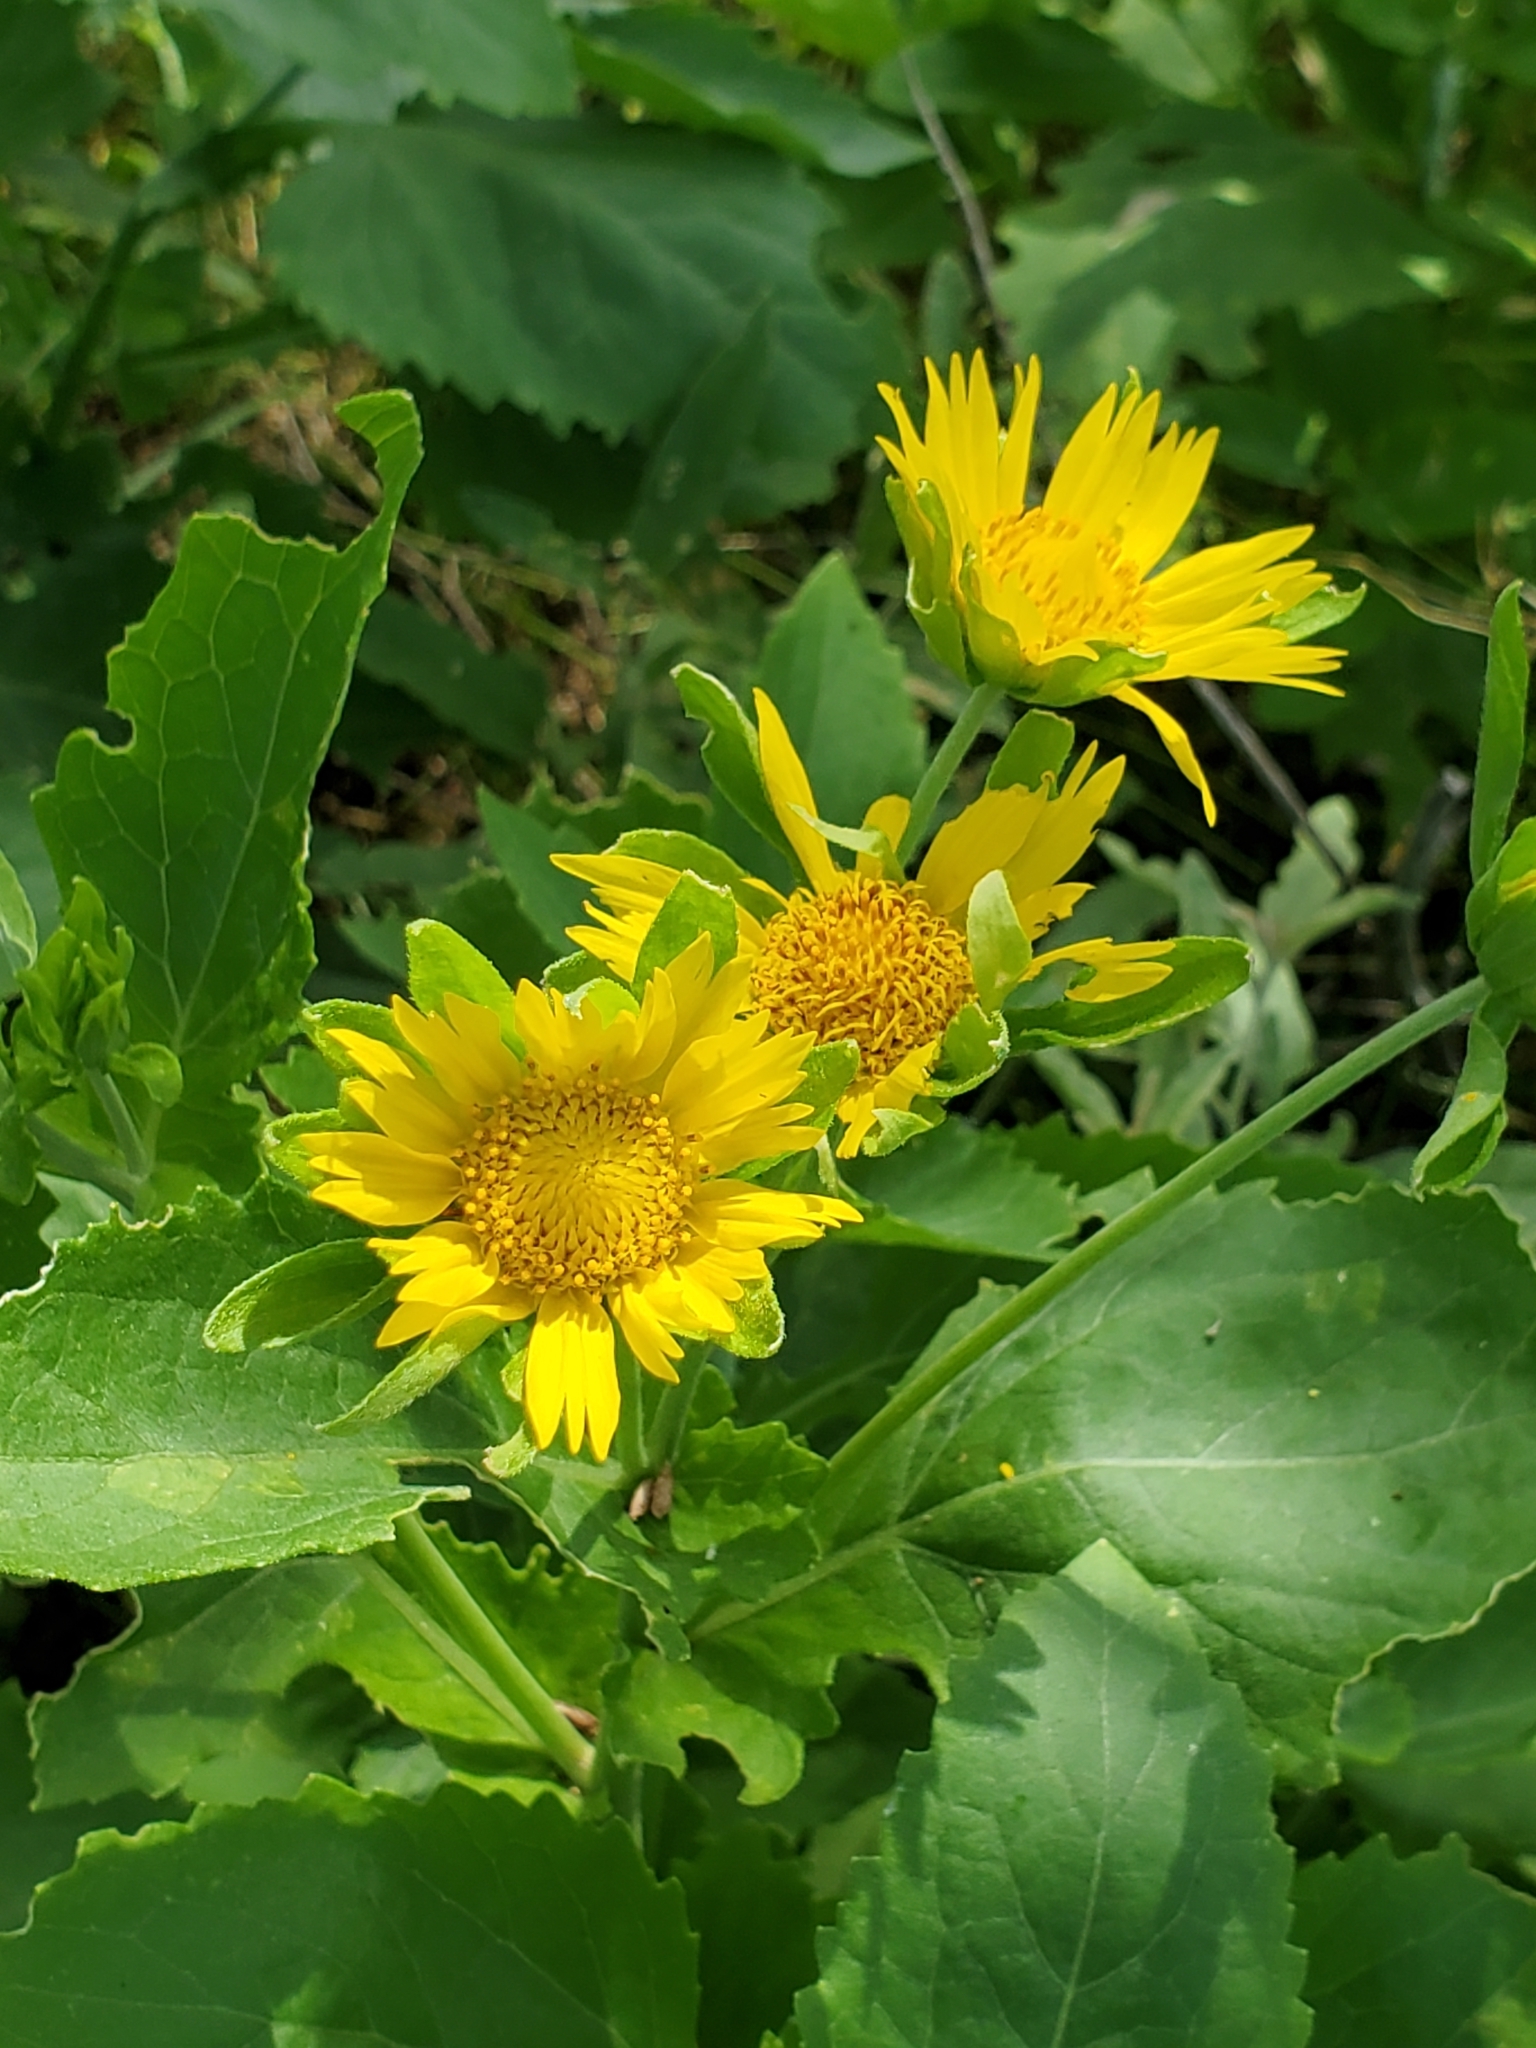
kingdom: Plantae
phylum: Tracheophyta
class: Magnoliopsida
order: Asterales
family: Asteraceae
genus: Verbesina
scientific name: Verbesina encelioides
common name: Golden crownbeard
